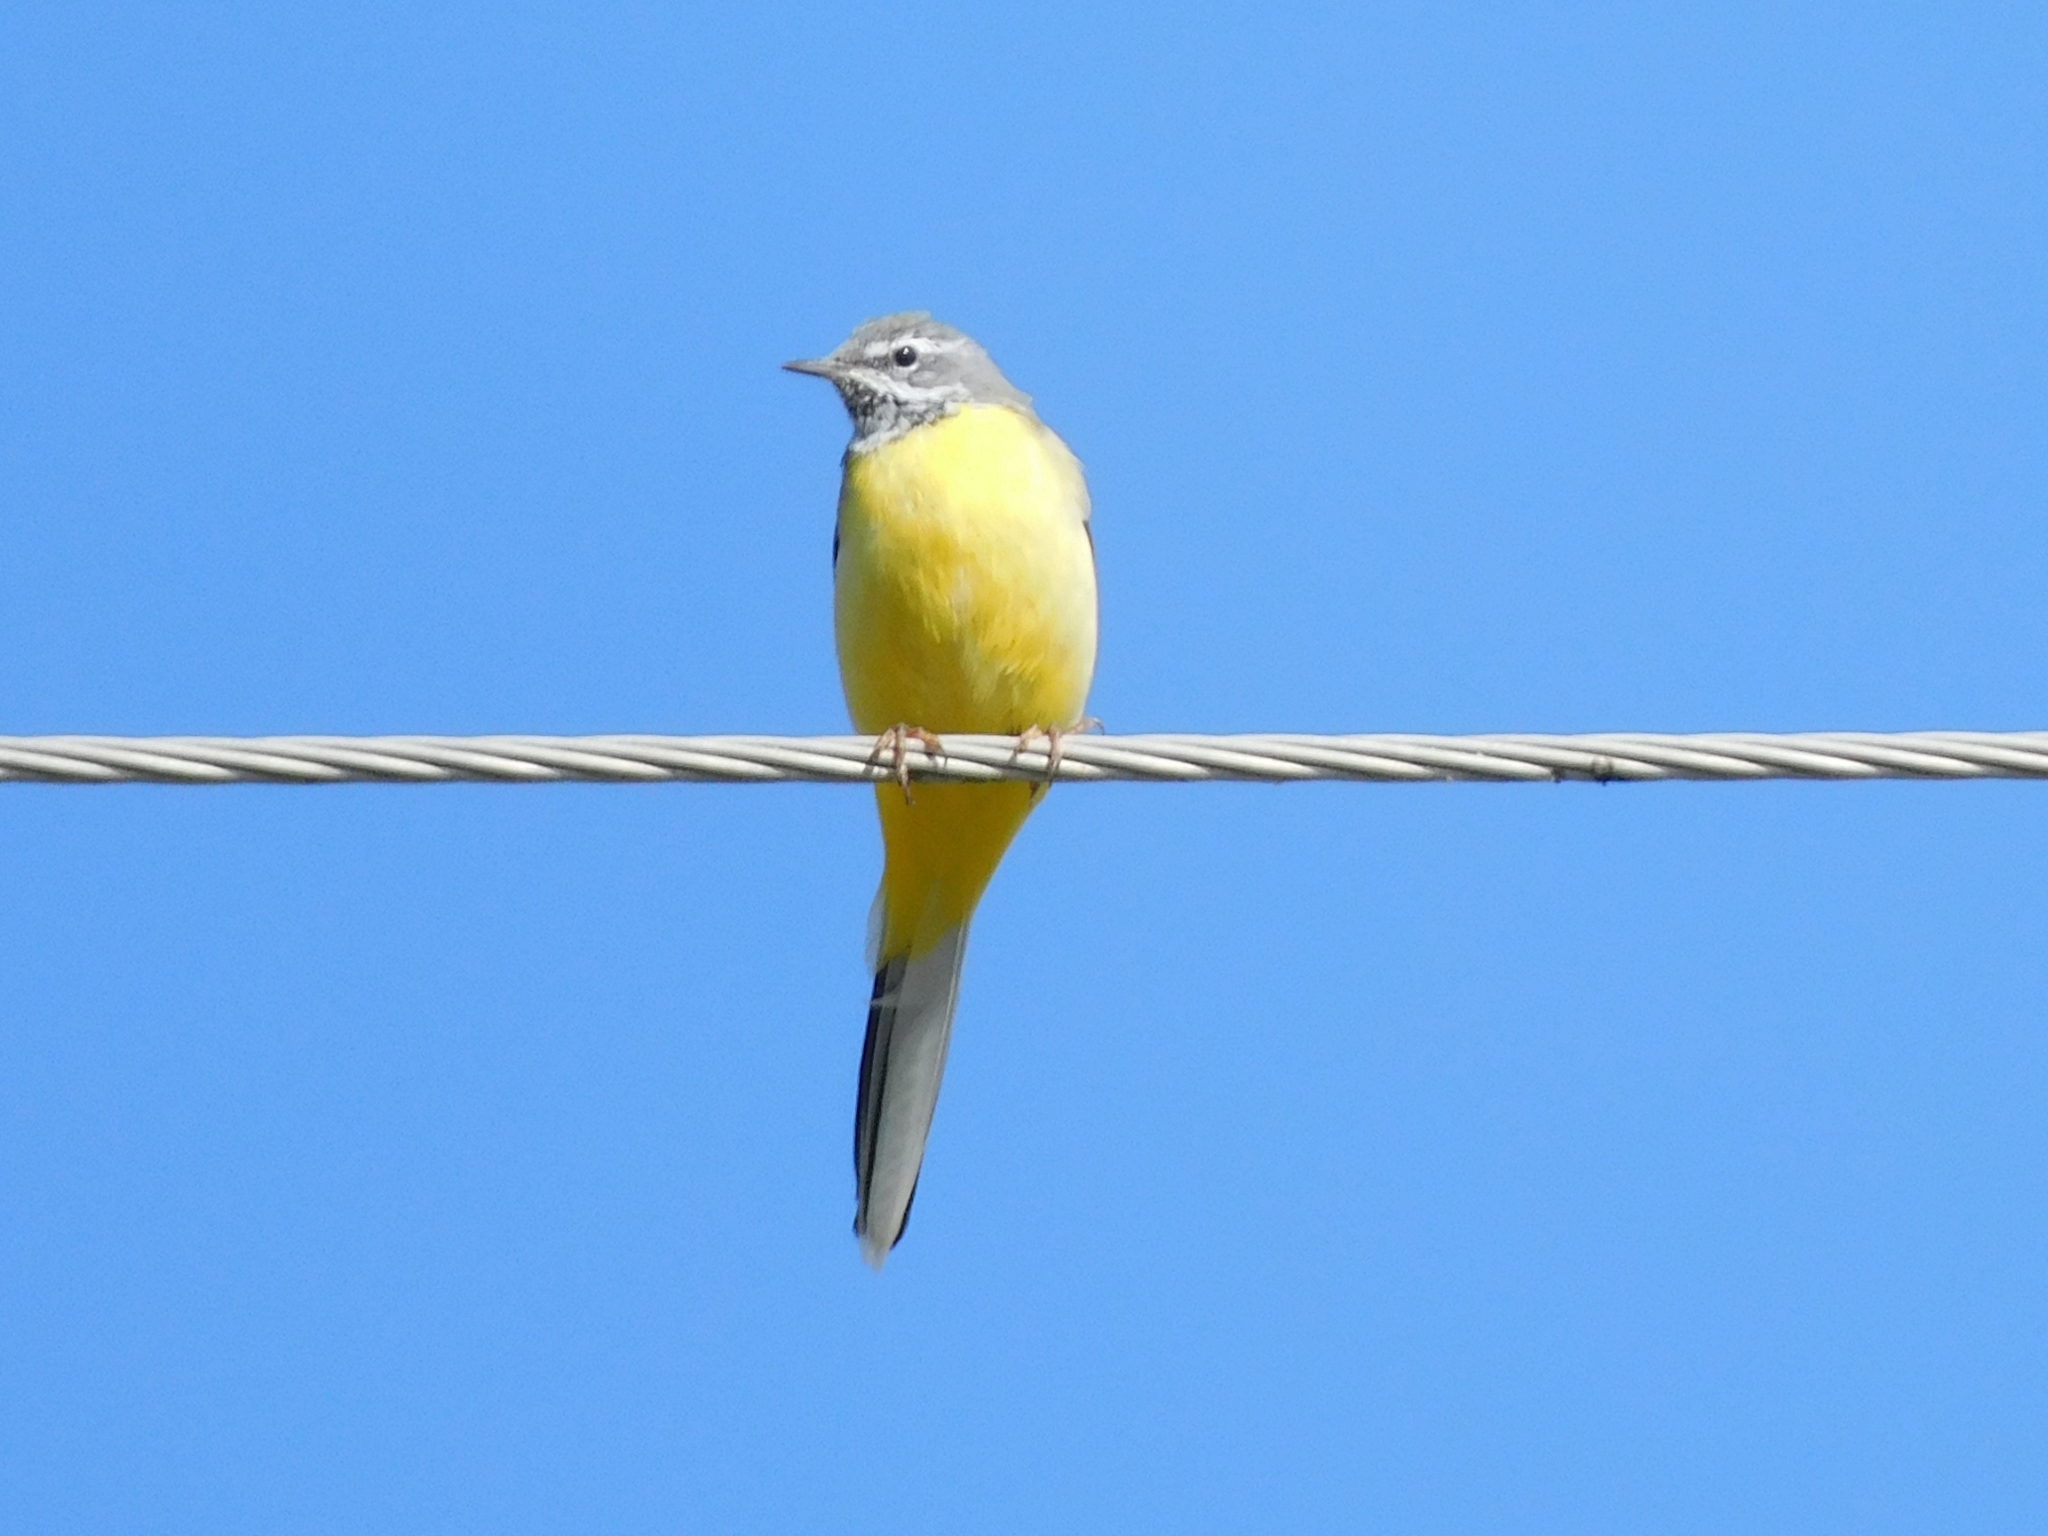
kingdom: Animalia
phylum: Chordata
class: Aves
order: Passeriformes
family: Motacillidae
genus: Motacilla
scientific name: Motacilla cinerea
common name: Grey wagtail
